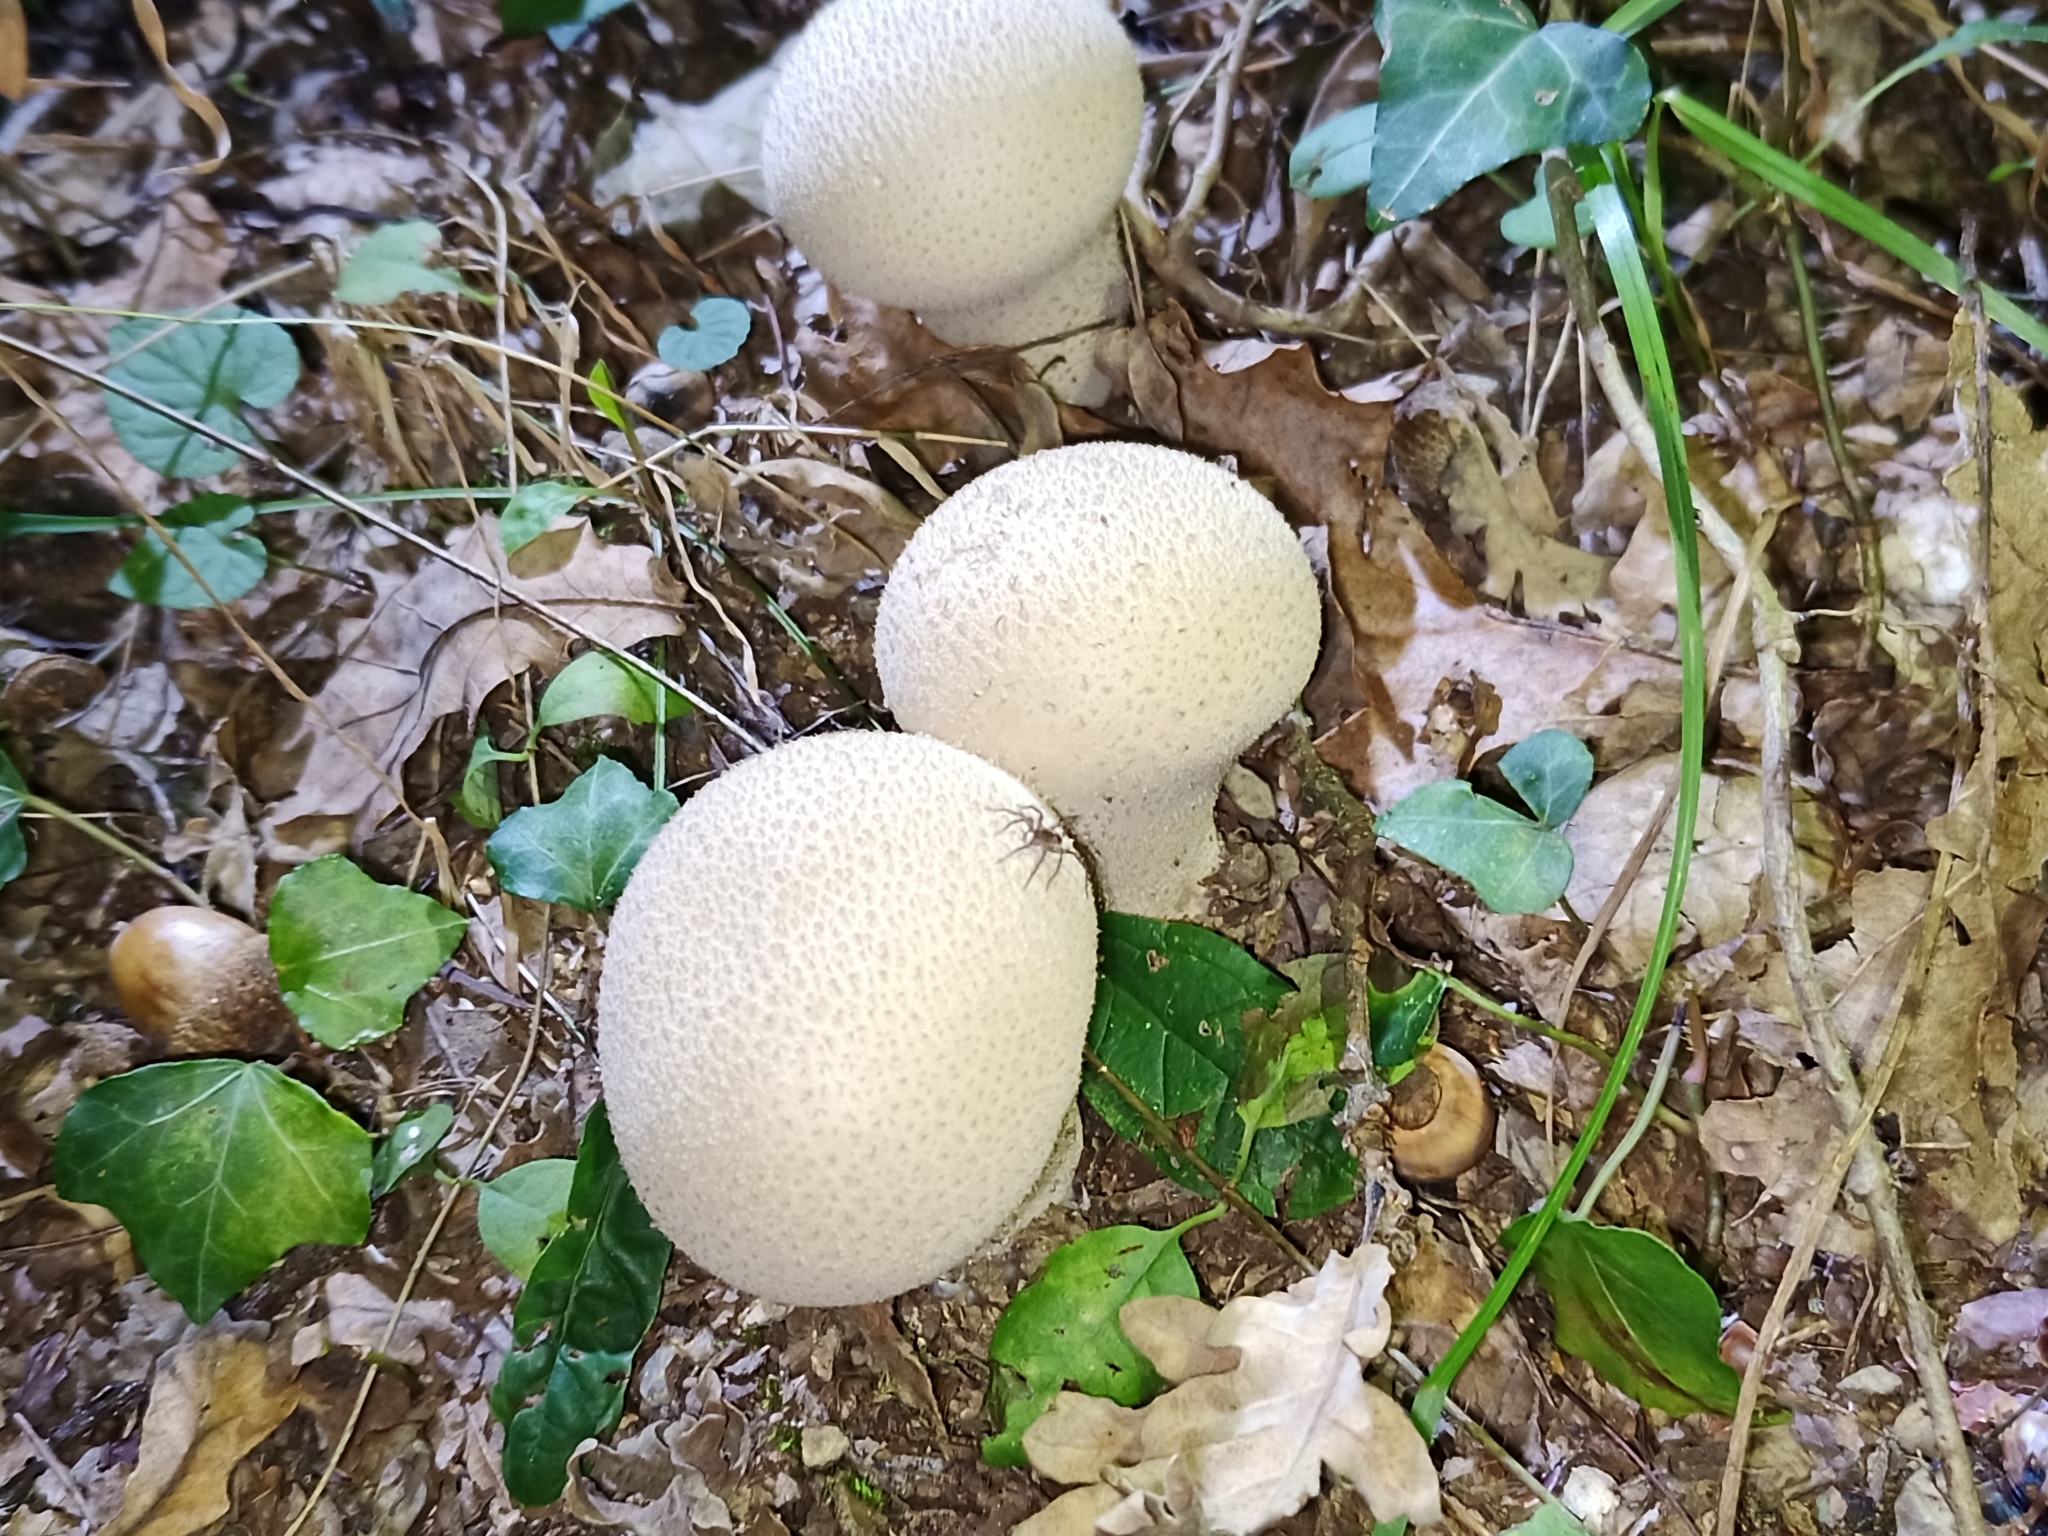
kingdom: Fungi
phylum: Basidiomycota
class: Agaricomycetes
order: Agaricales
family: Lycoperdaceae
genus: Lycoperdon
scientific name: Lycoperdon perlatum
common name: Common puffball
